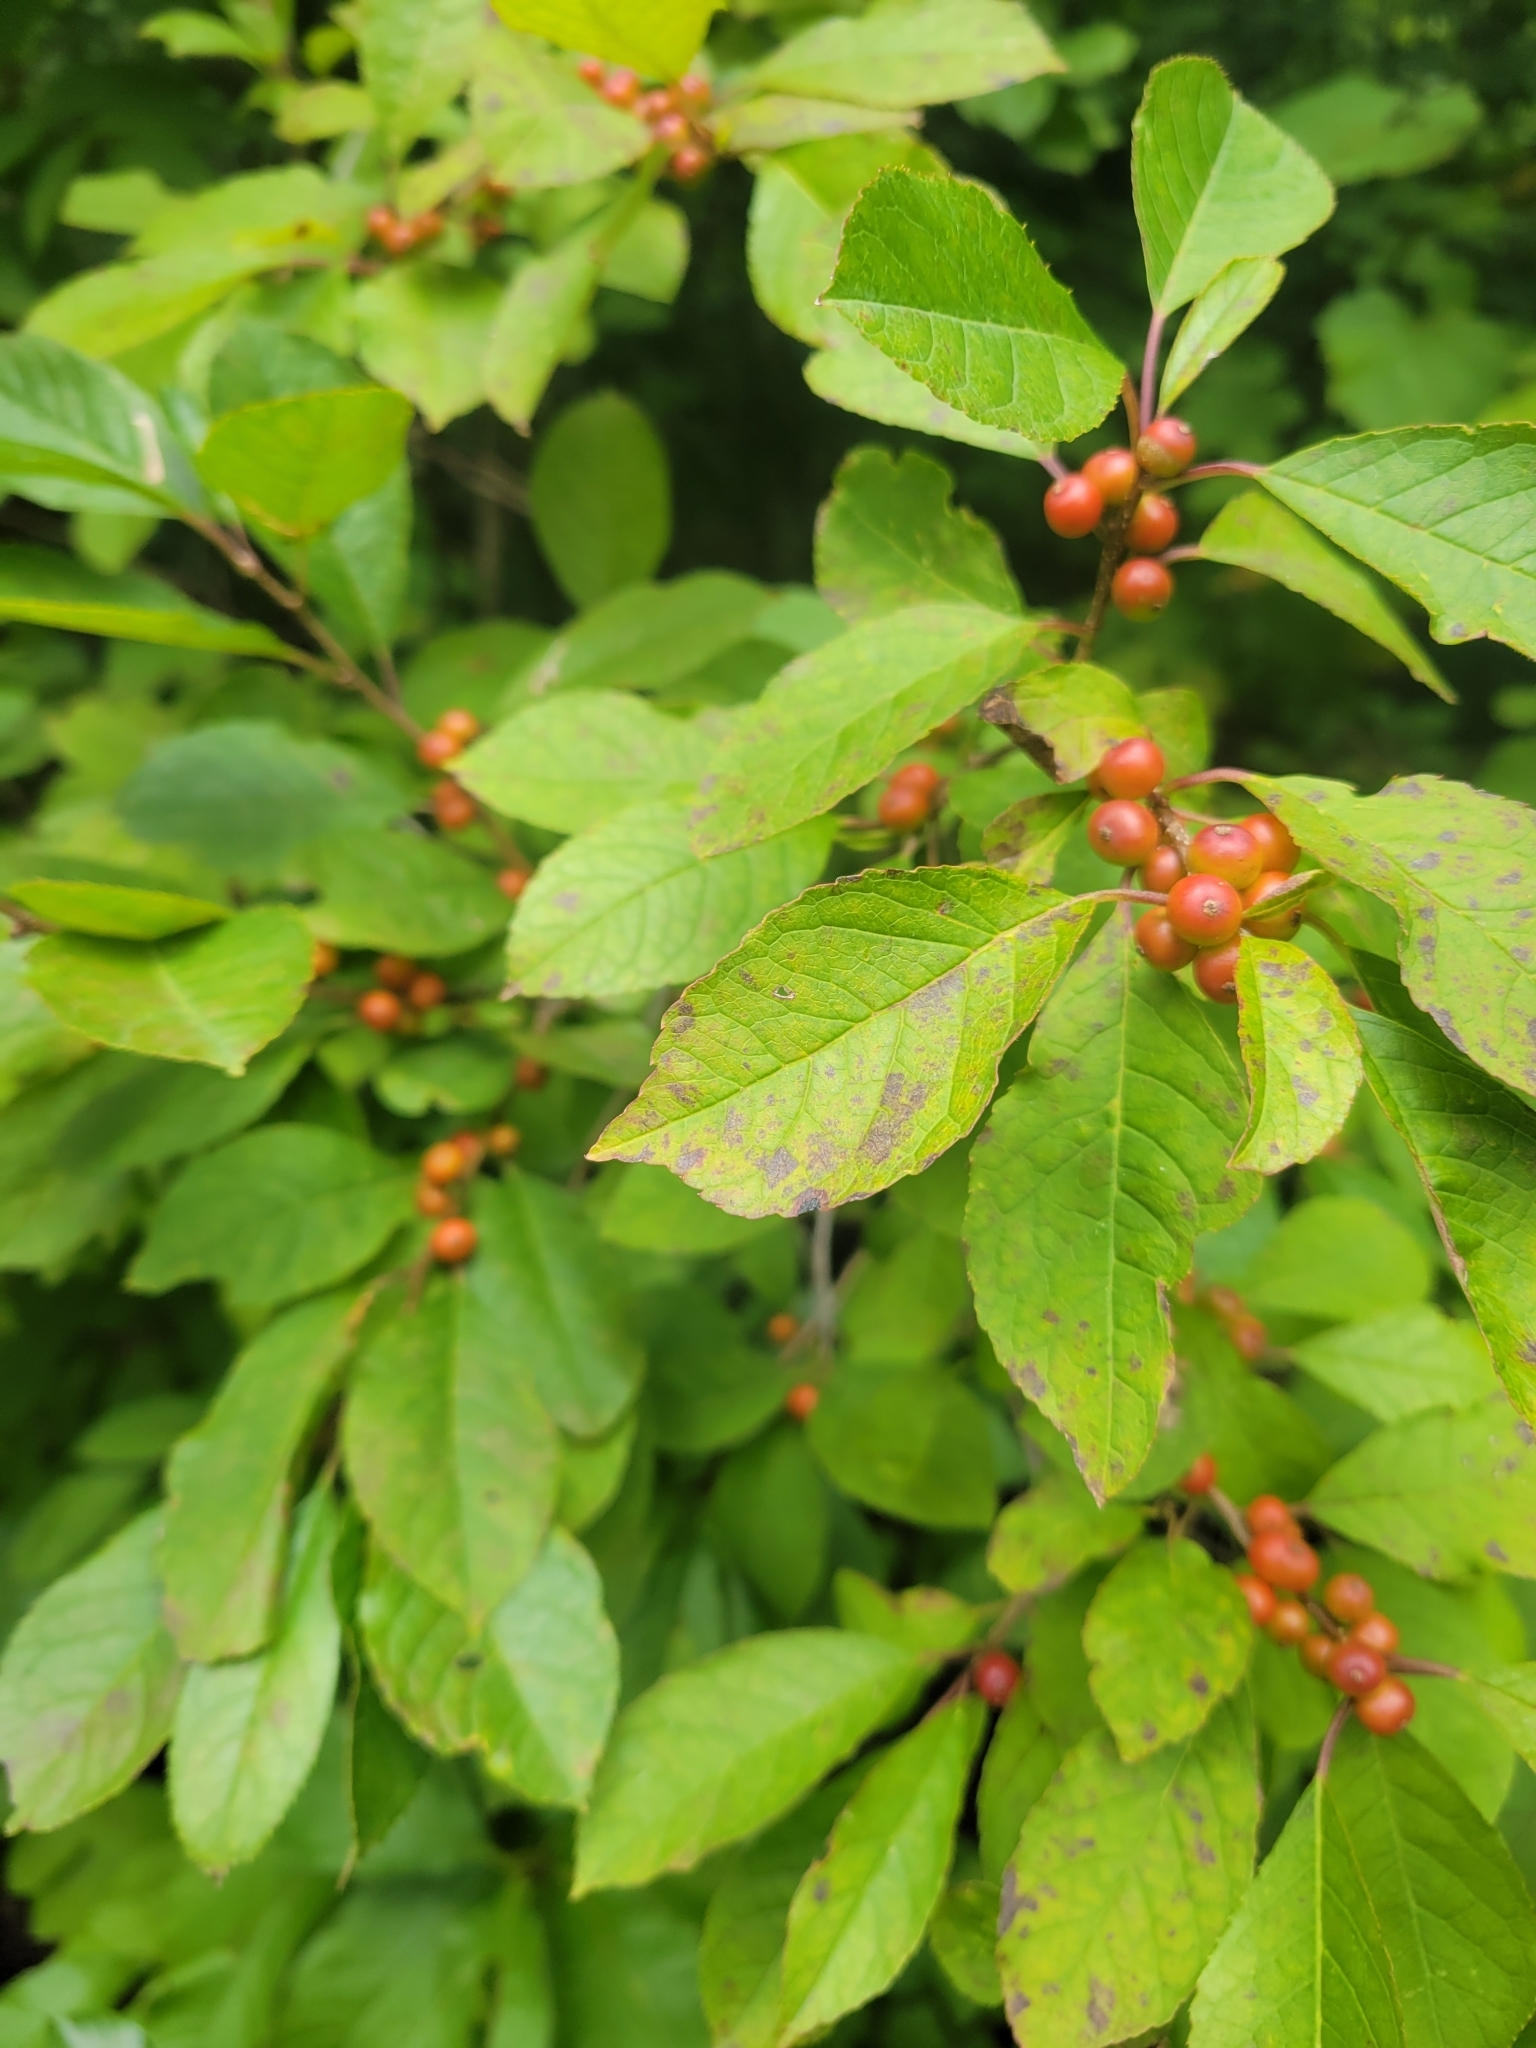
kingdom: Plantae
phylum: Tracheophyta
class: Magnoliopsida
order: Aquifoliales
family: Aquifoliaceae
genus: Ilex
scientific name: Ilex verticillata
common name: Virginia winterberry
